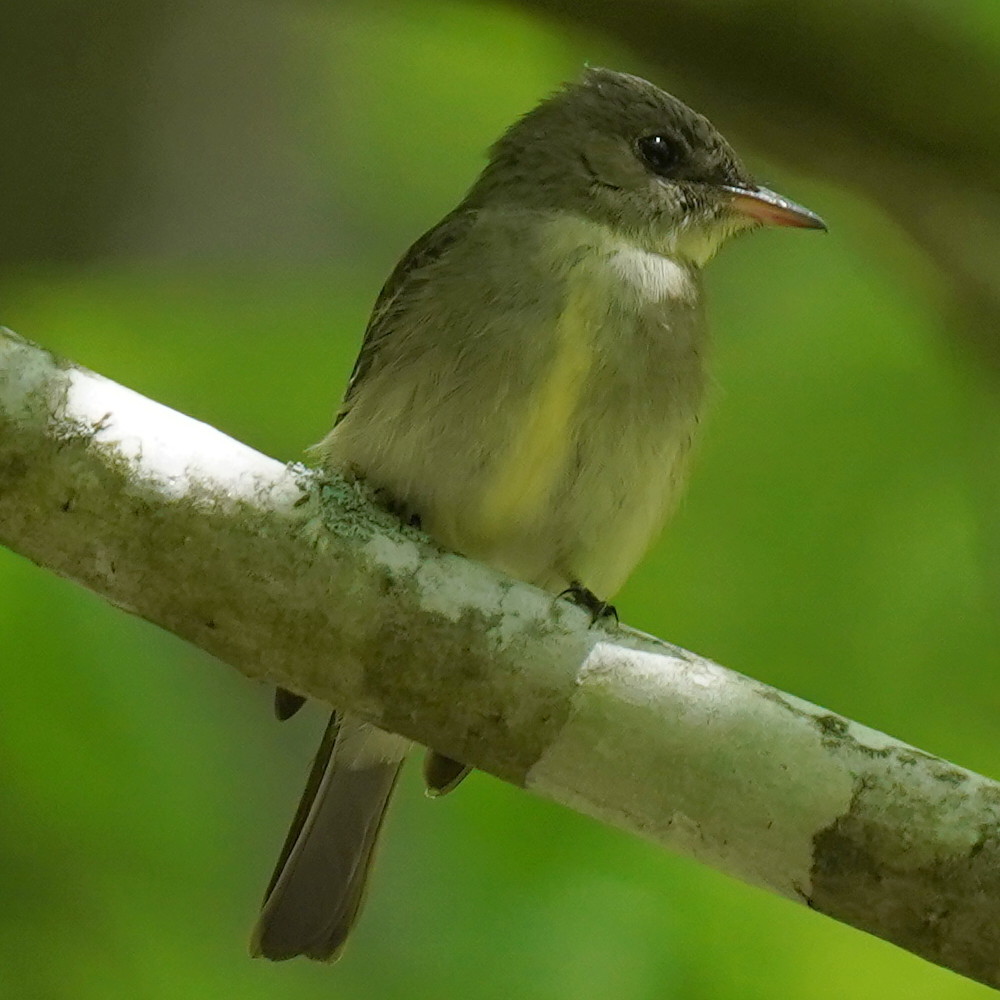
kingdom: Animalia
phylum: Chordata
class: Aves
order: Passeriformes
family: Tyrannidae
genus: Contopus
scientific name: Contopus virens
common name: Eastern wood-pewee
